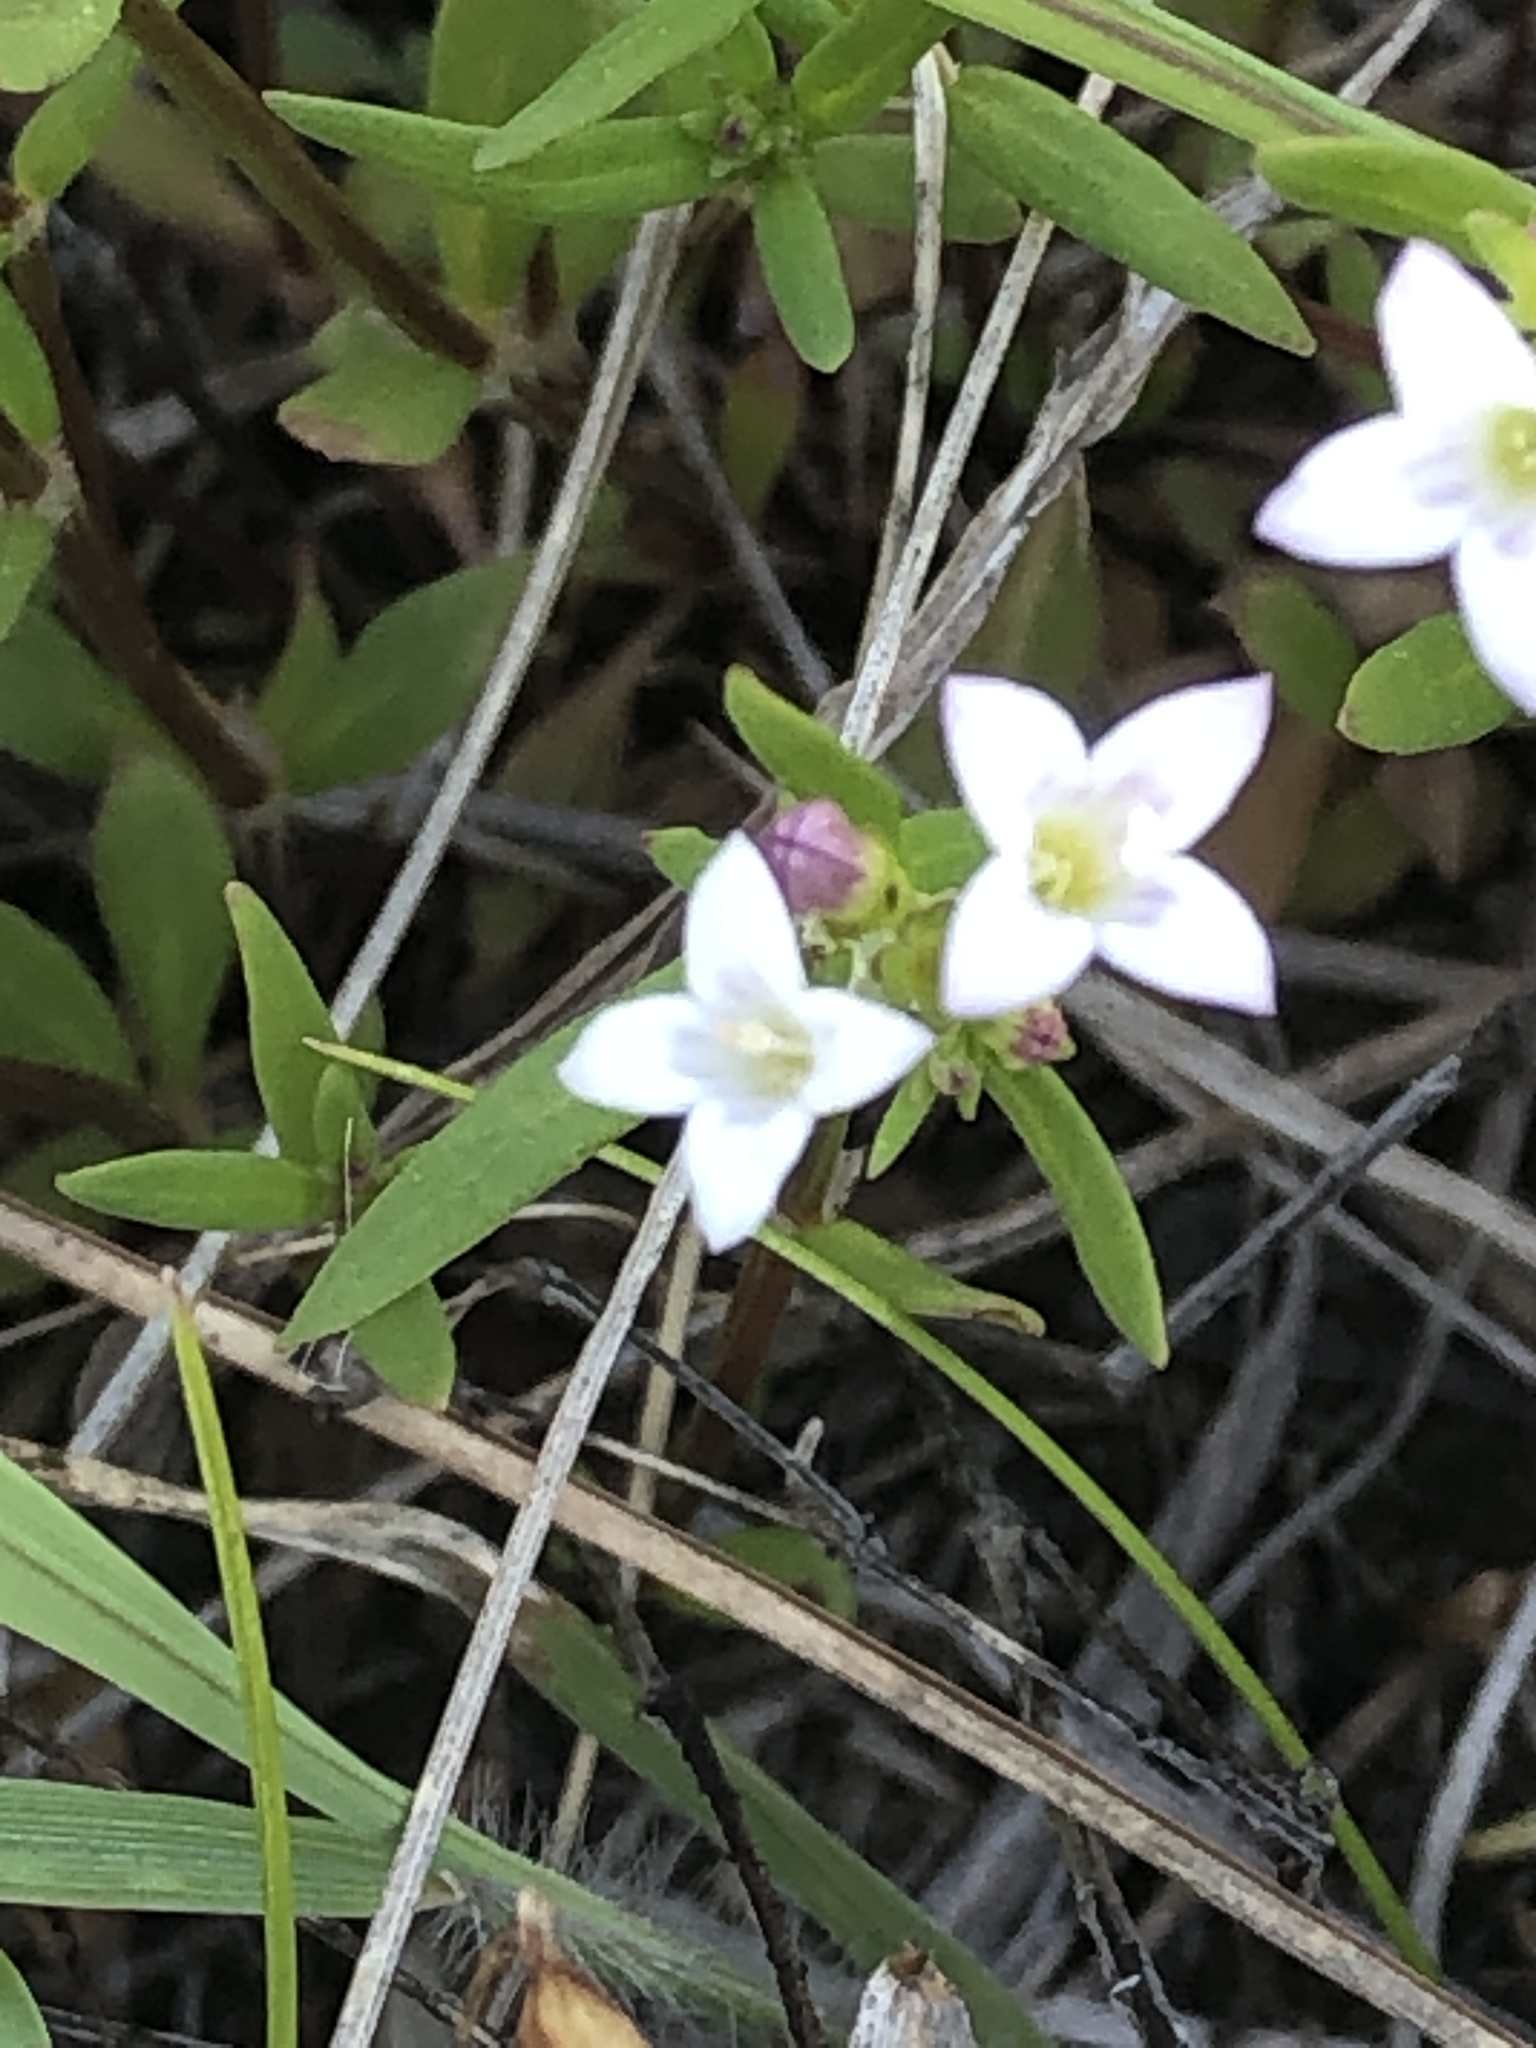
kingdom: Plantae
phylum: Tracheophyta
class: Magnoliopsida
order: Gentianales
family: Rubiaceae
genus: Houstonia
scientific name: Houstonia longifolia
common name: Long-leaved bluets
